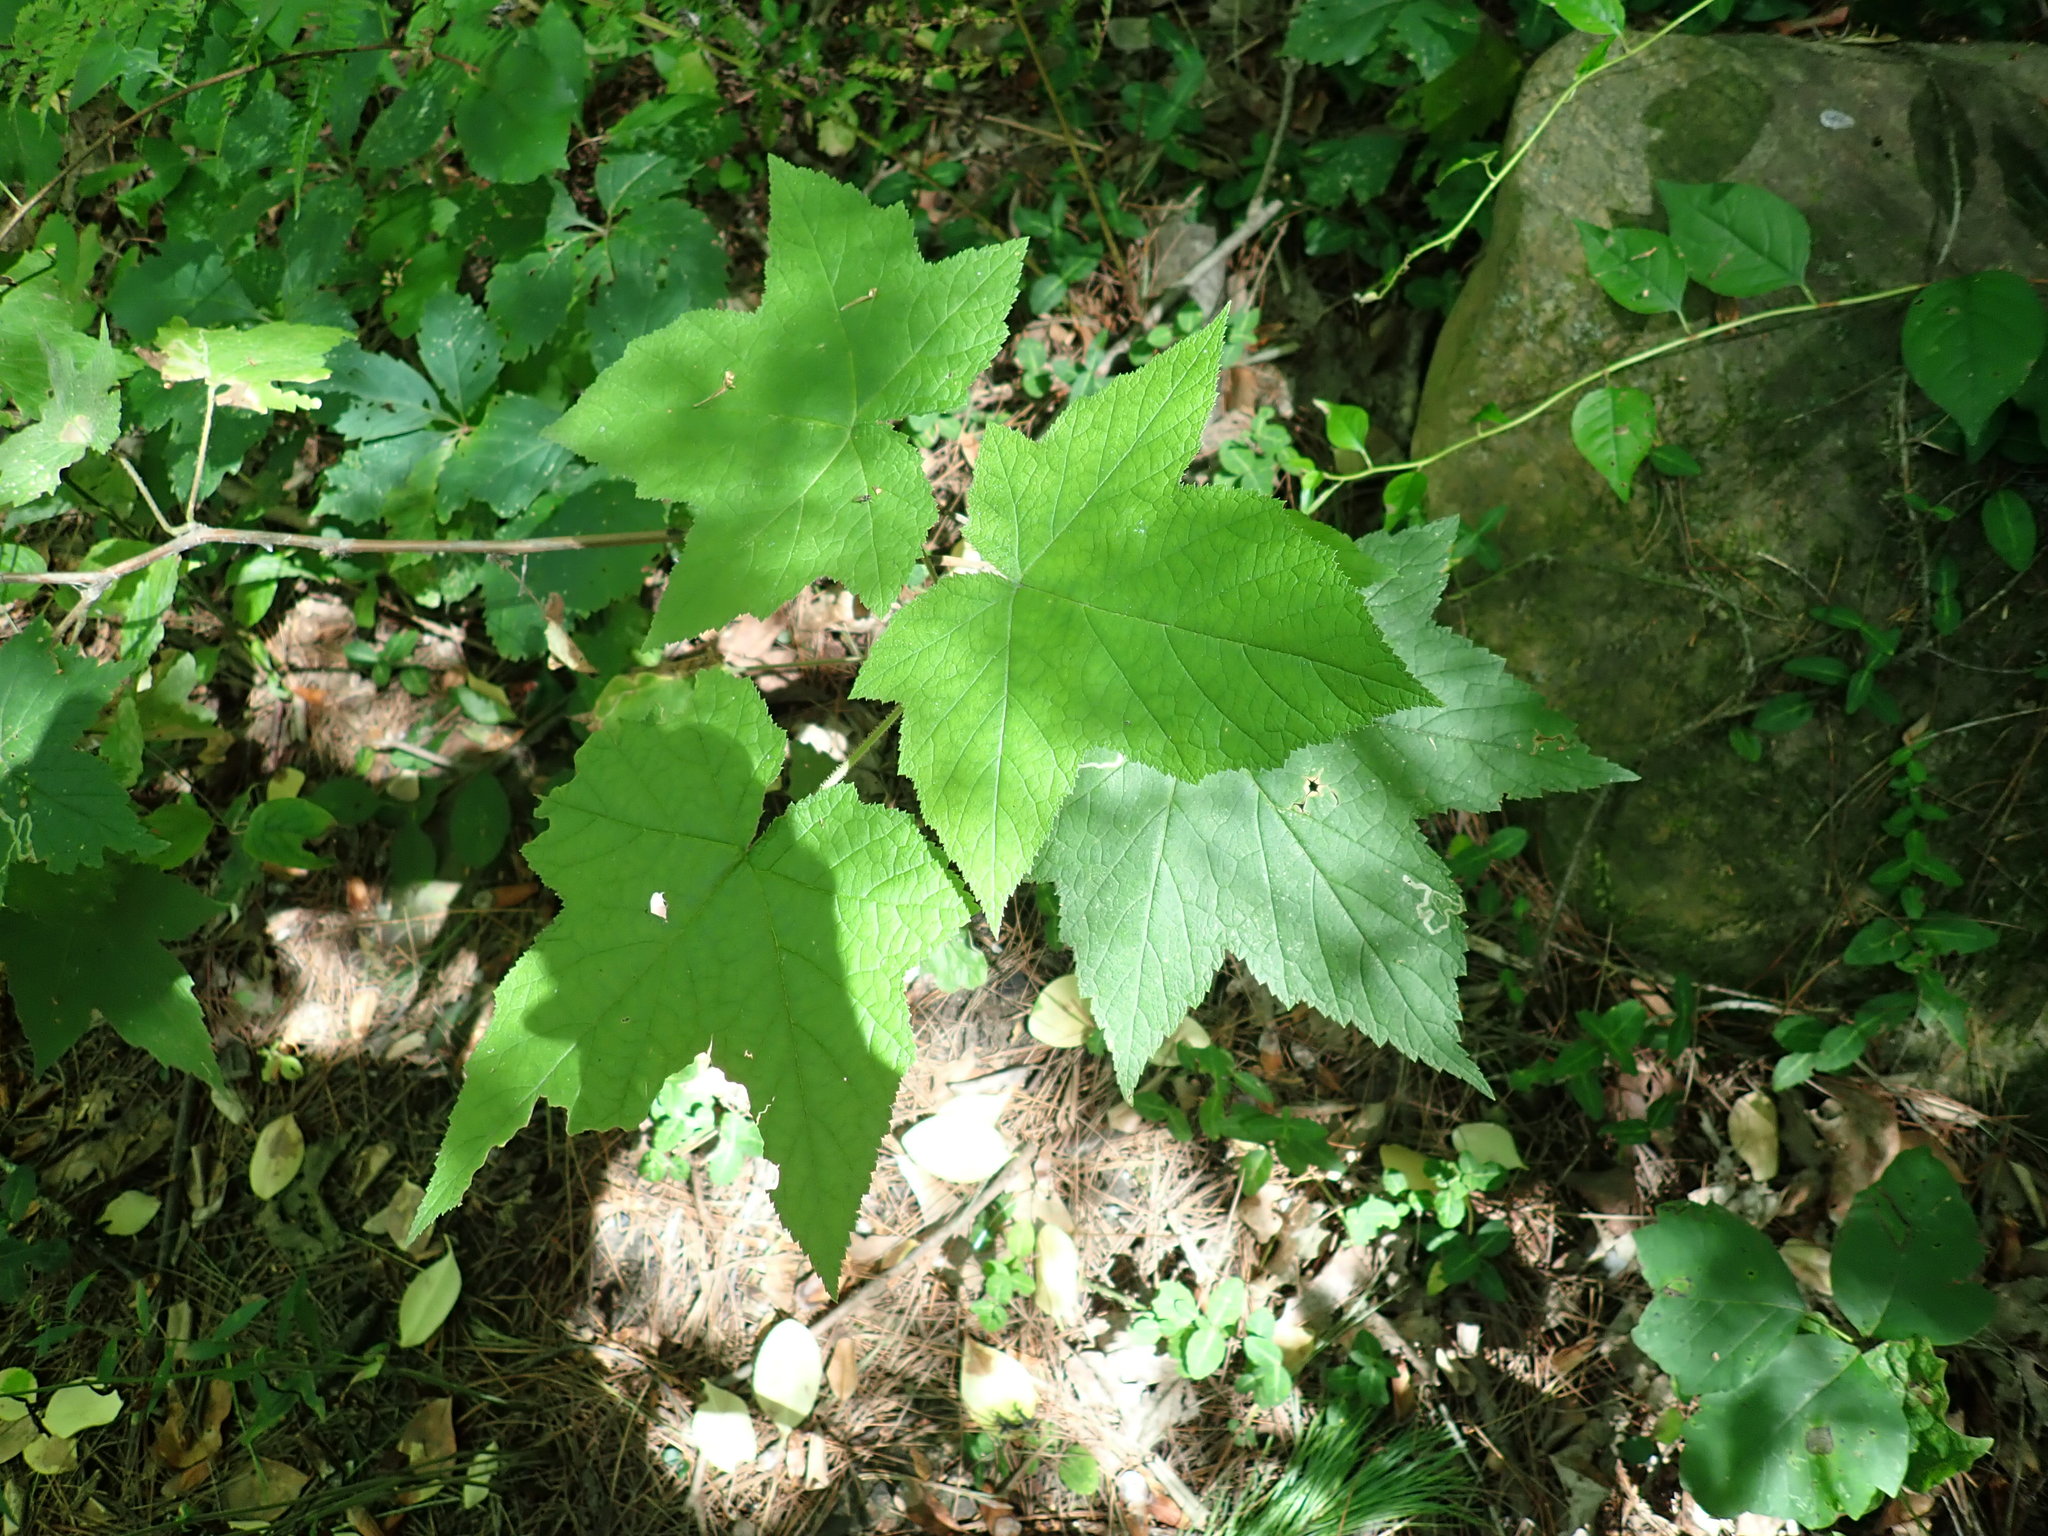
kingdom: Plantae
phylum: Tracheophyta
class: Magnoliopsida
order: Rosales
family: Rosaceae
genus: Rubus
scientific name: Rubus odoratus
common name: Purple-flowered raspberry
